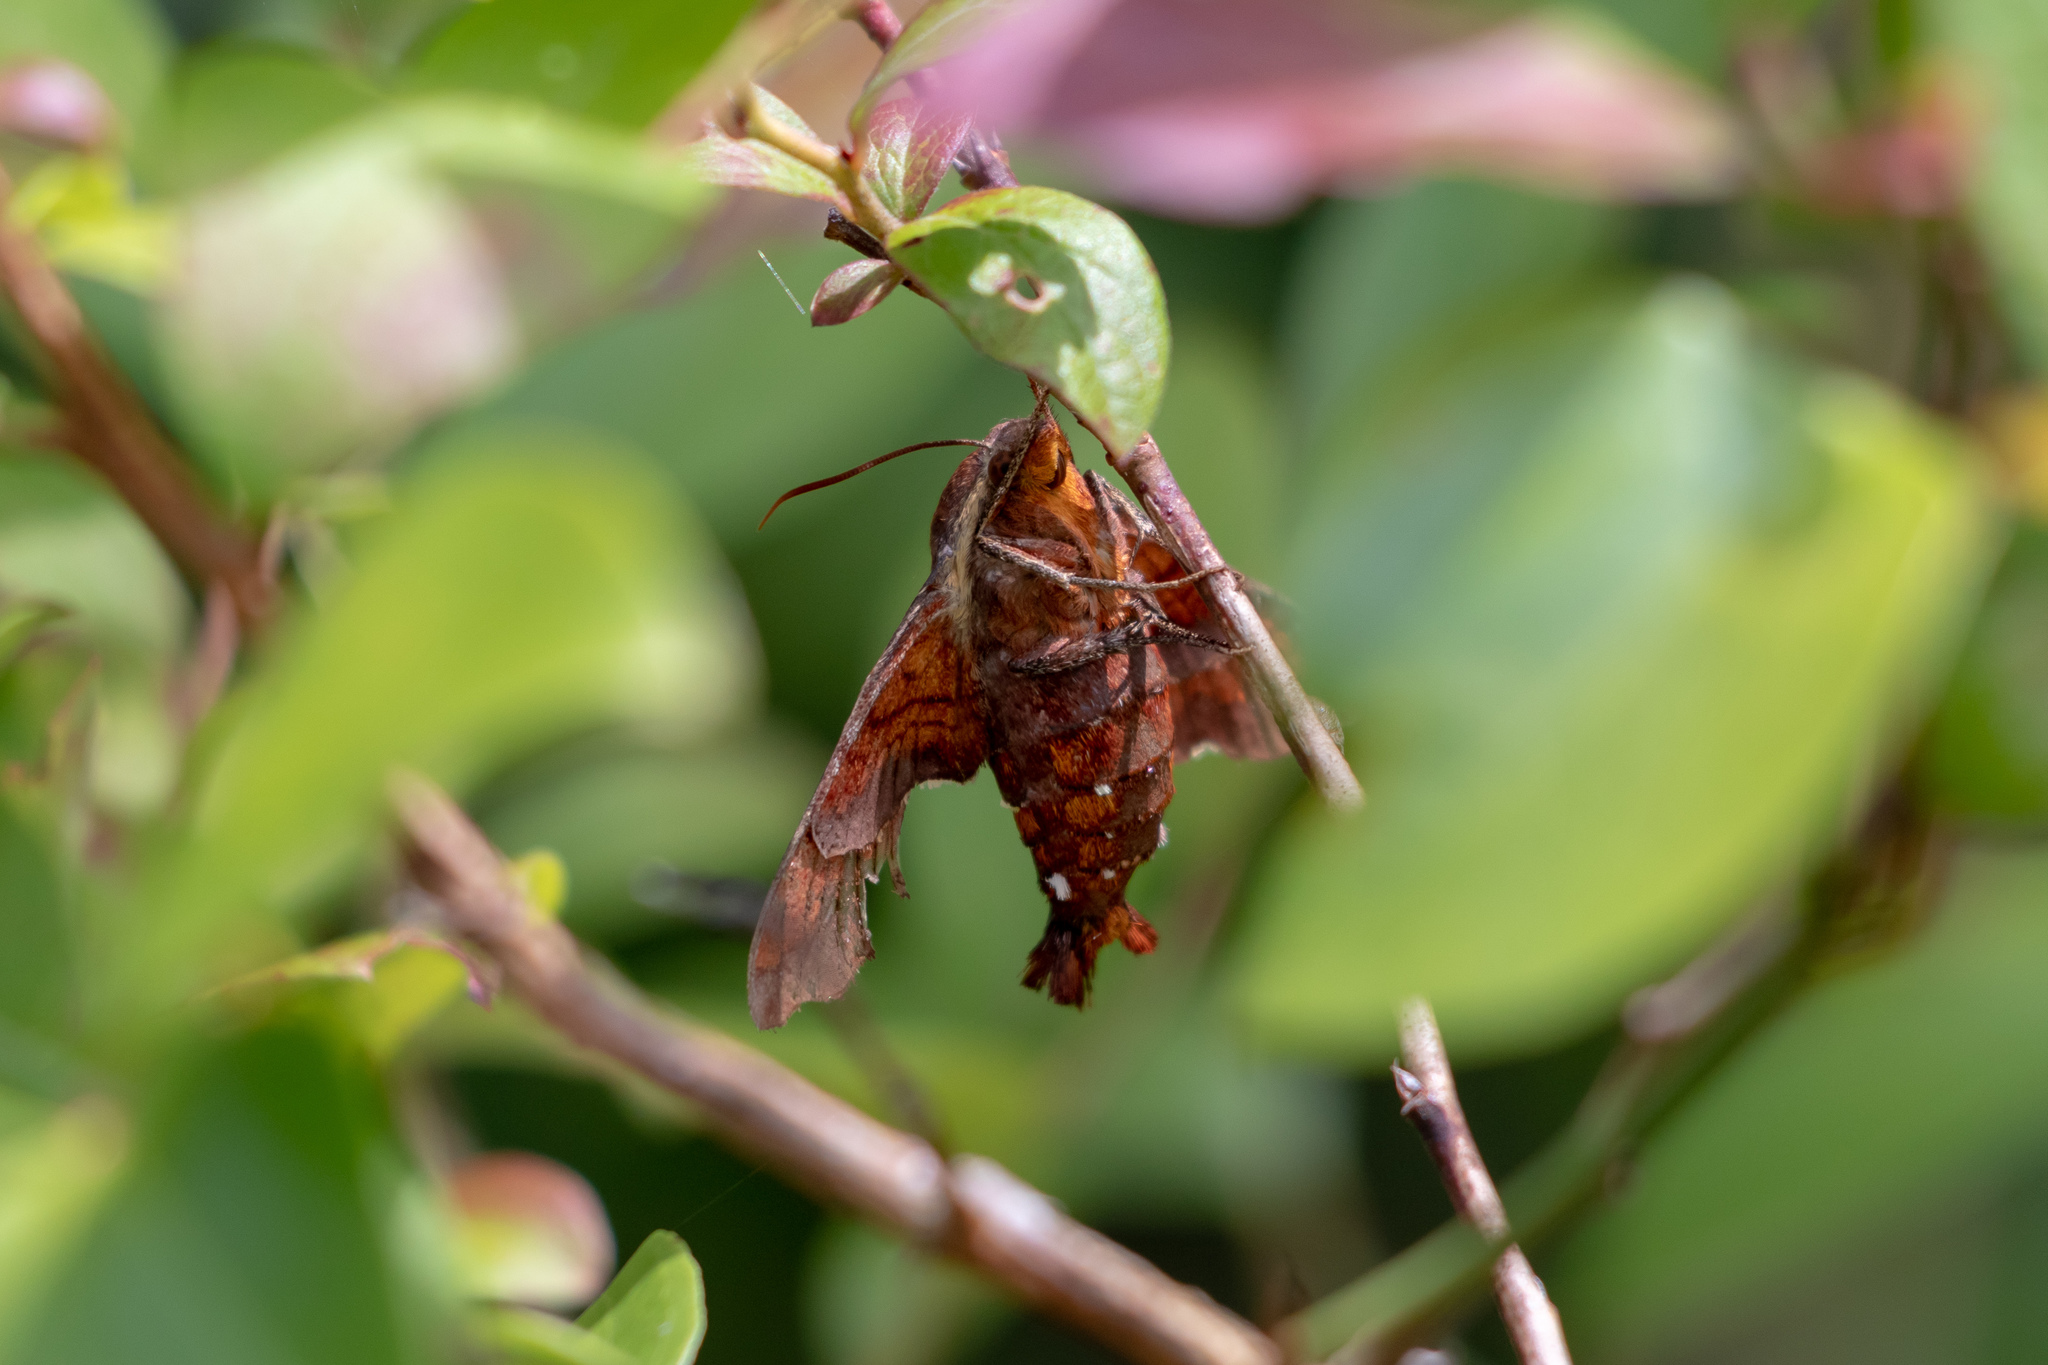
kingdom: Animalia
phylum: Arthropoda
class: Insecta
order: Lepidoptera
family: Sphingidae
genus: Amphion
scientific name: Amphion floridensis
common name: Nessus sphinx
